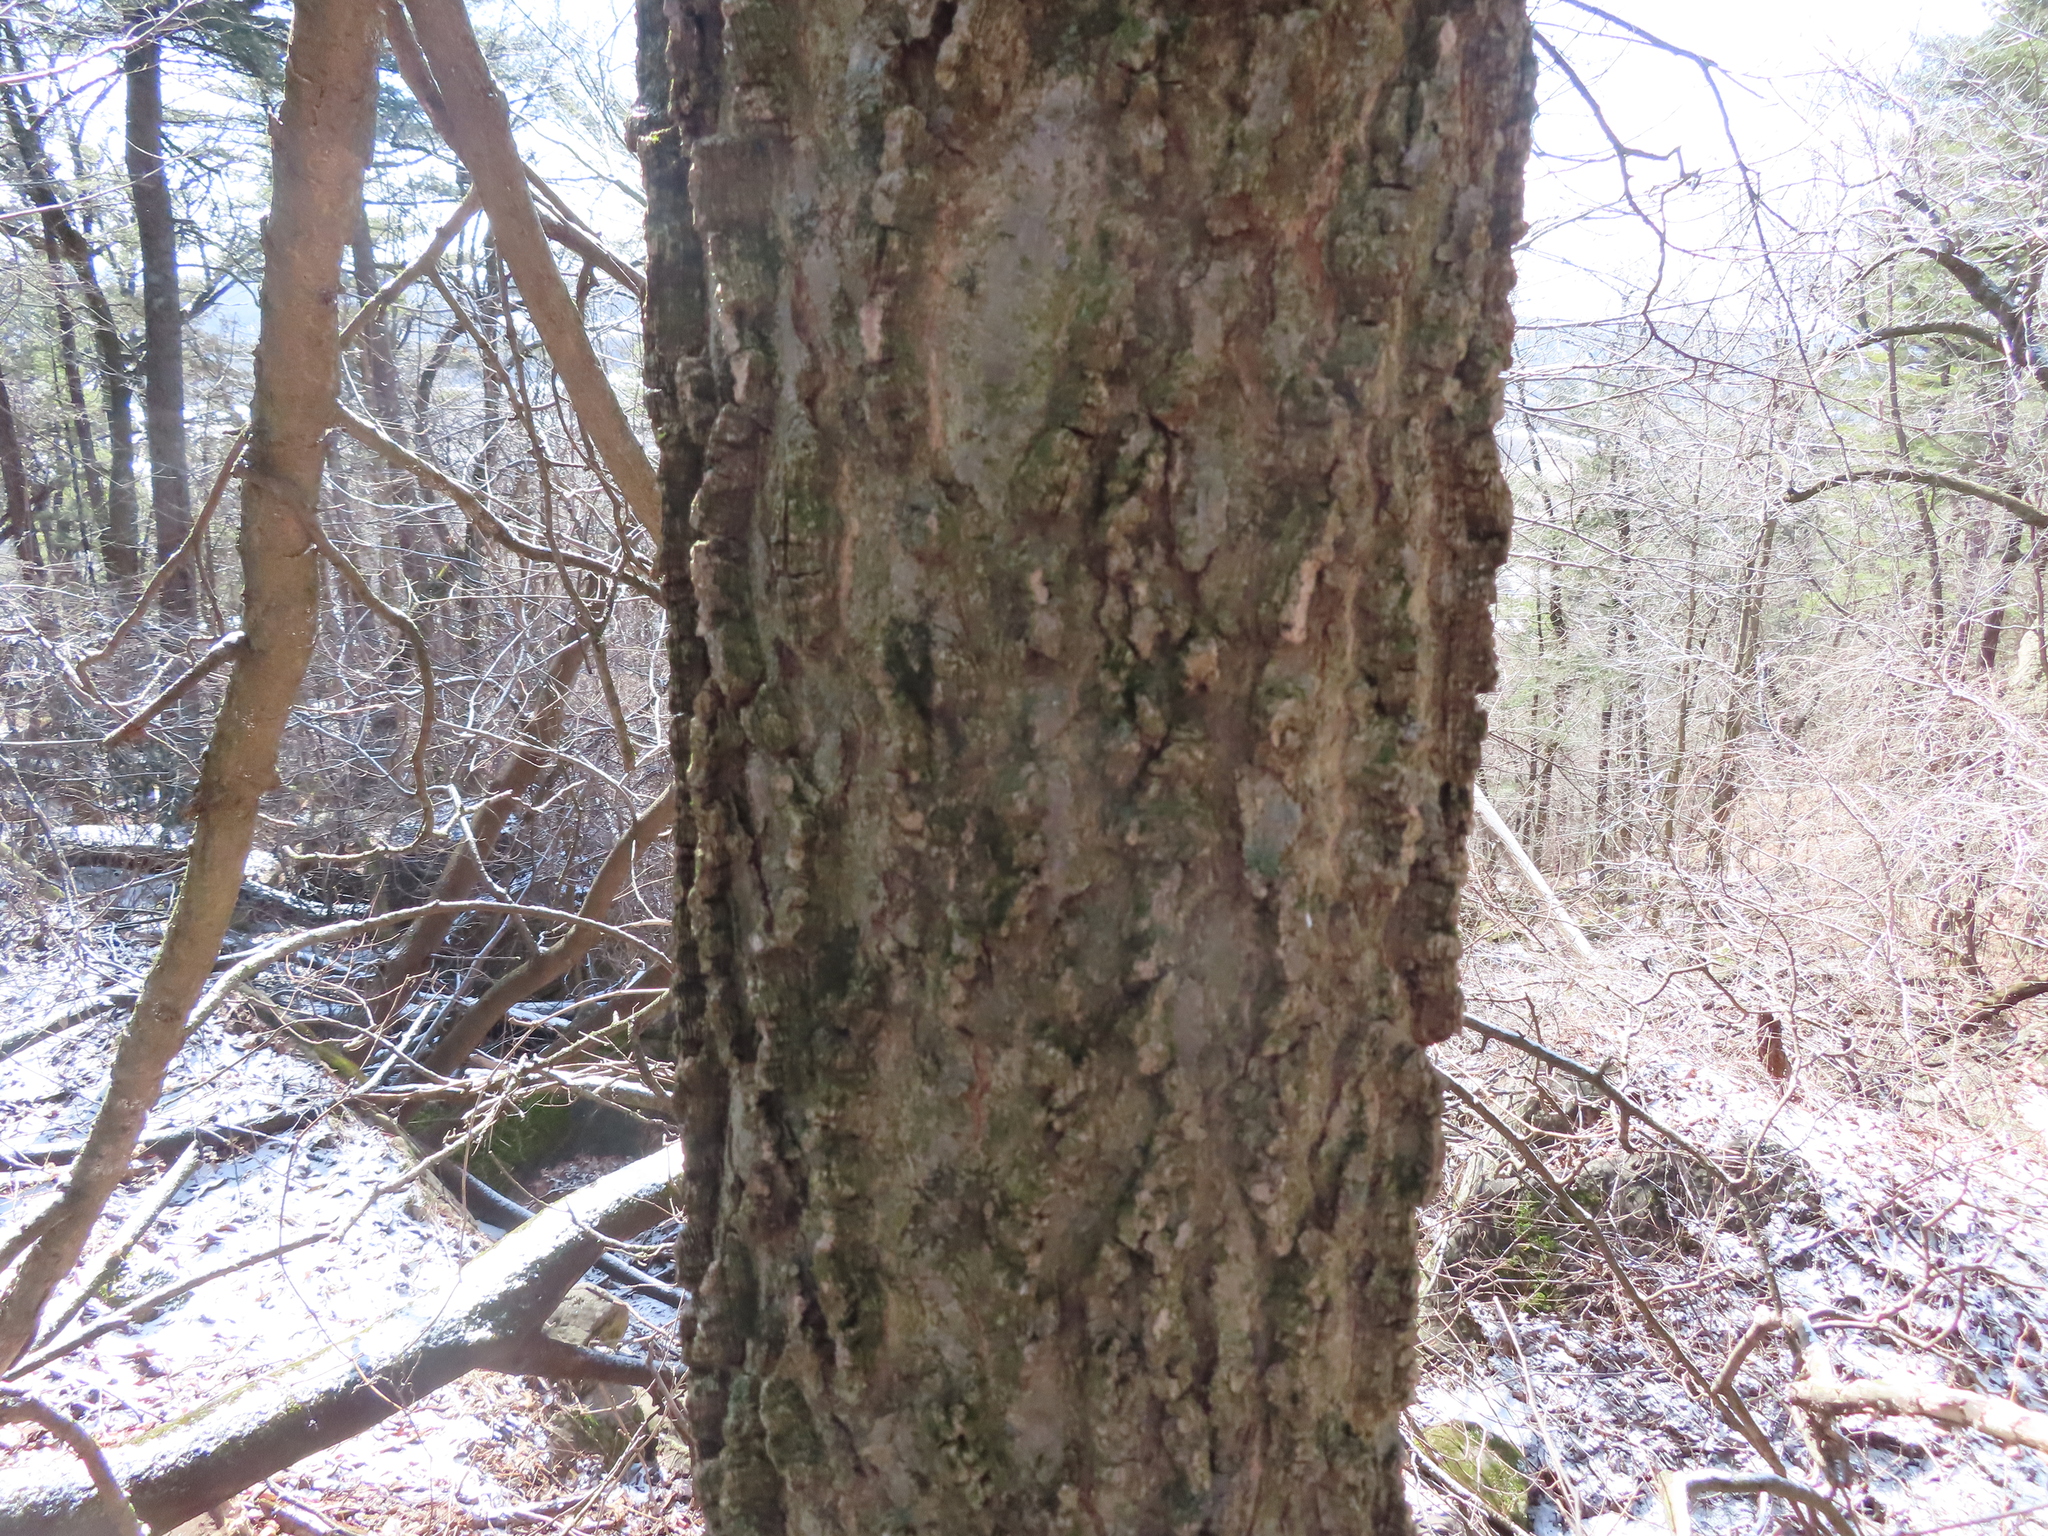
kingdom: Plantae
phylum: Tracheophyta
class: Magnoliopsida
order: Rosales
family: Cannabaceae
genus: Celtis
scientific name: Celtis occidentalis
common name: Common hackberry
